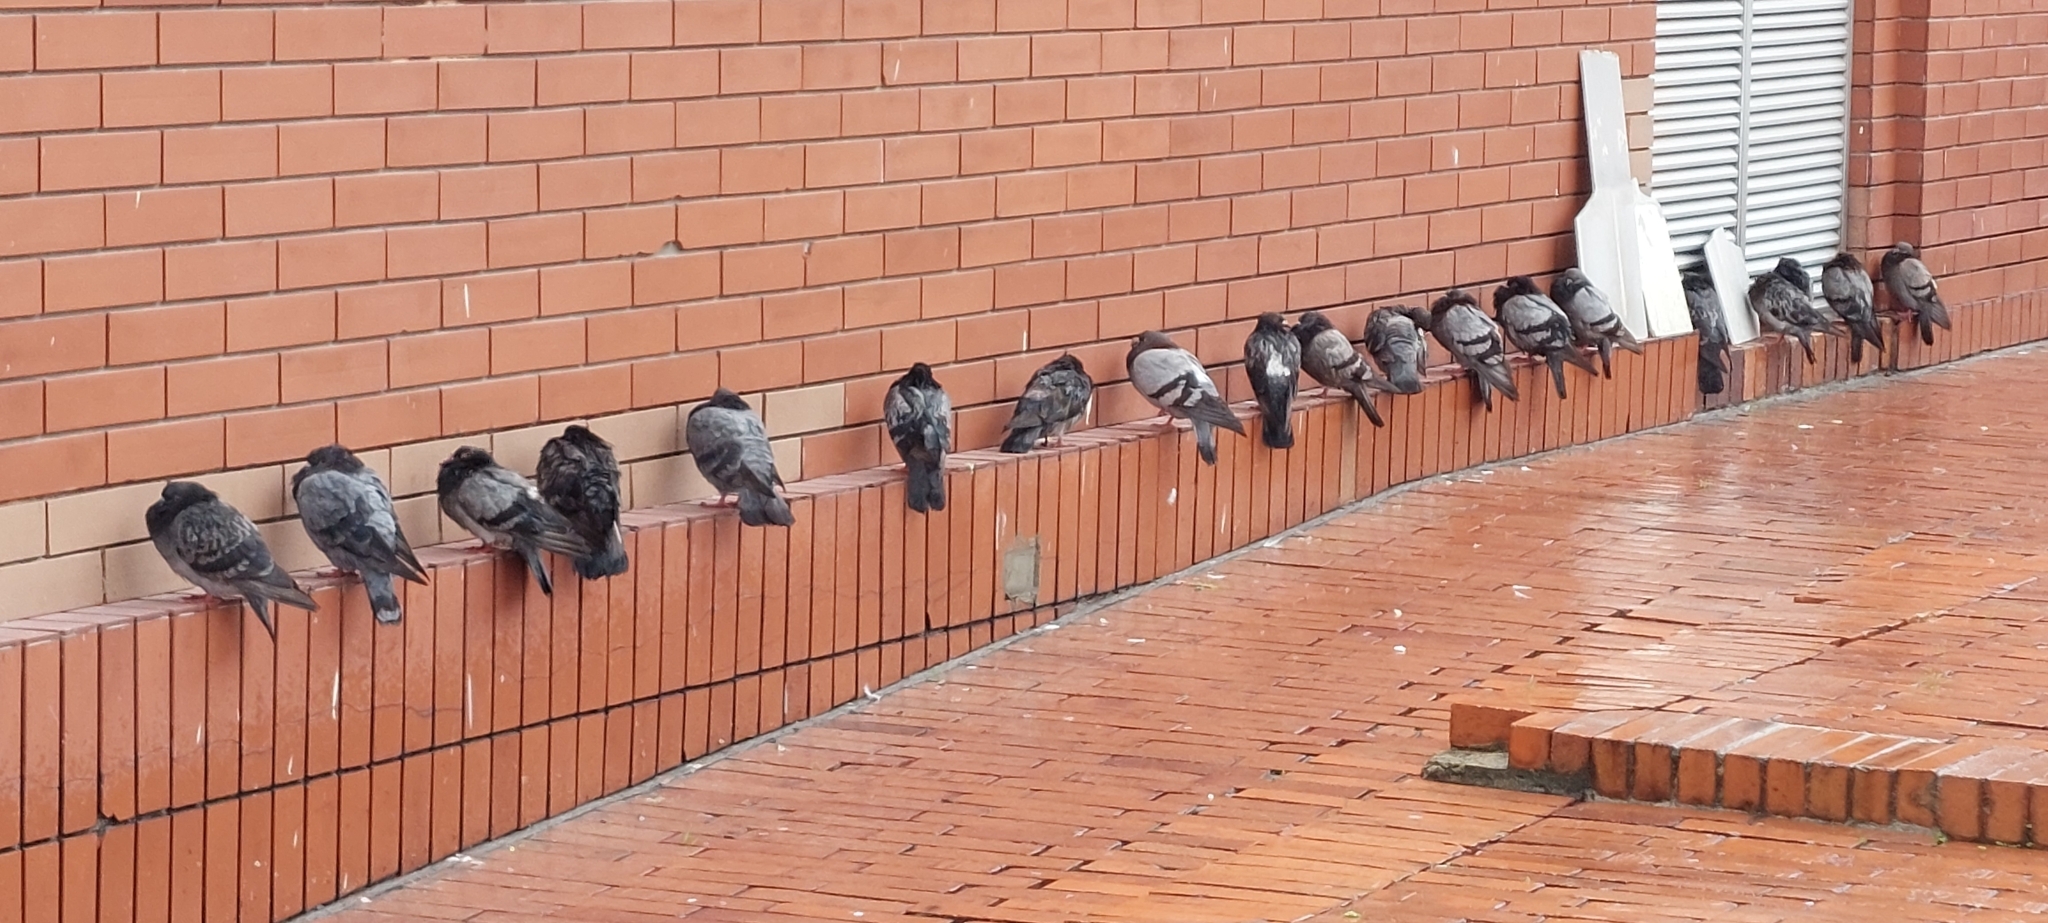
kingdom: Animalia
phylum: Chordata
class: Aves
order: Columbiformes
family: Columbidae
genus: Columba
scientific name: Columba livia
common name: Rock pigeon
